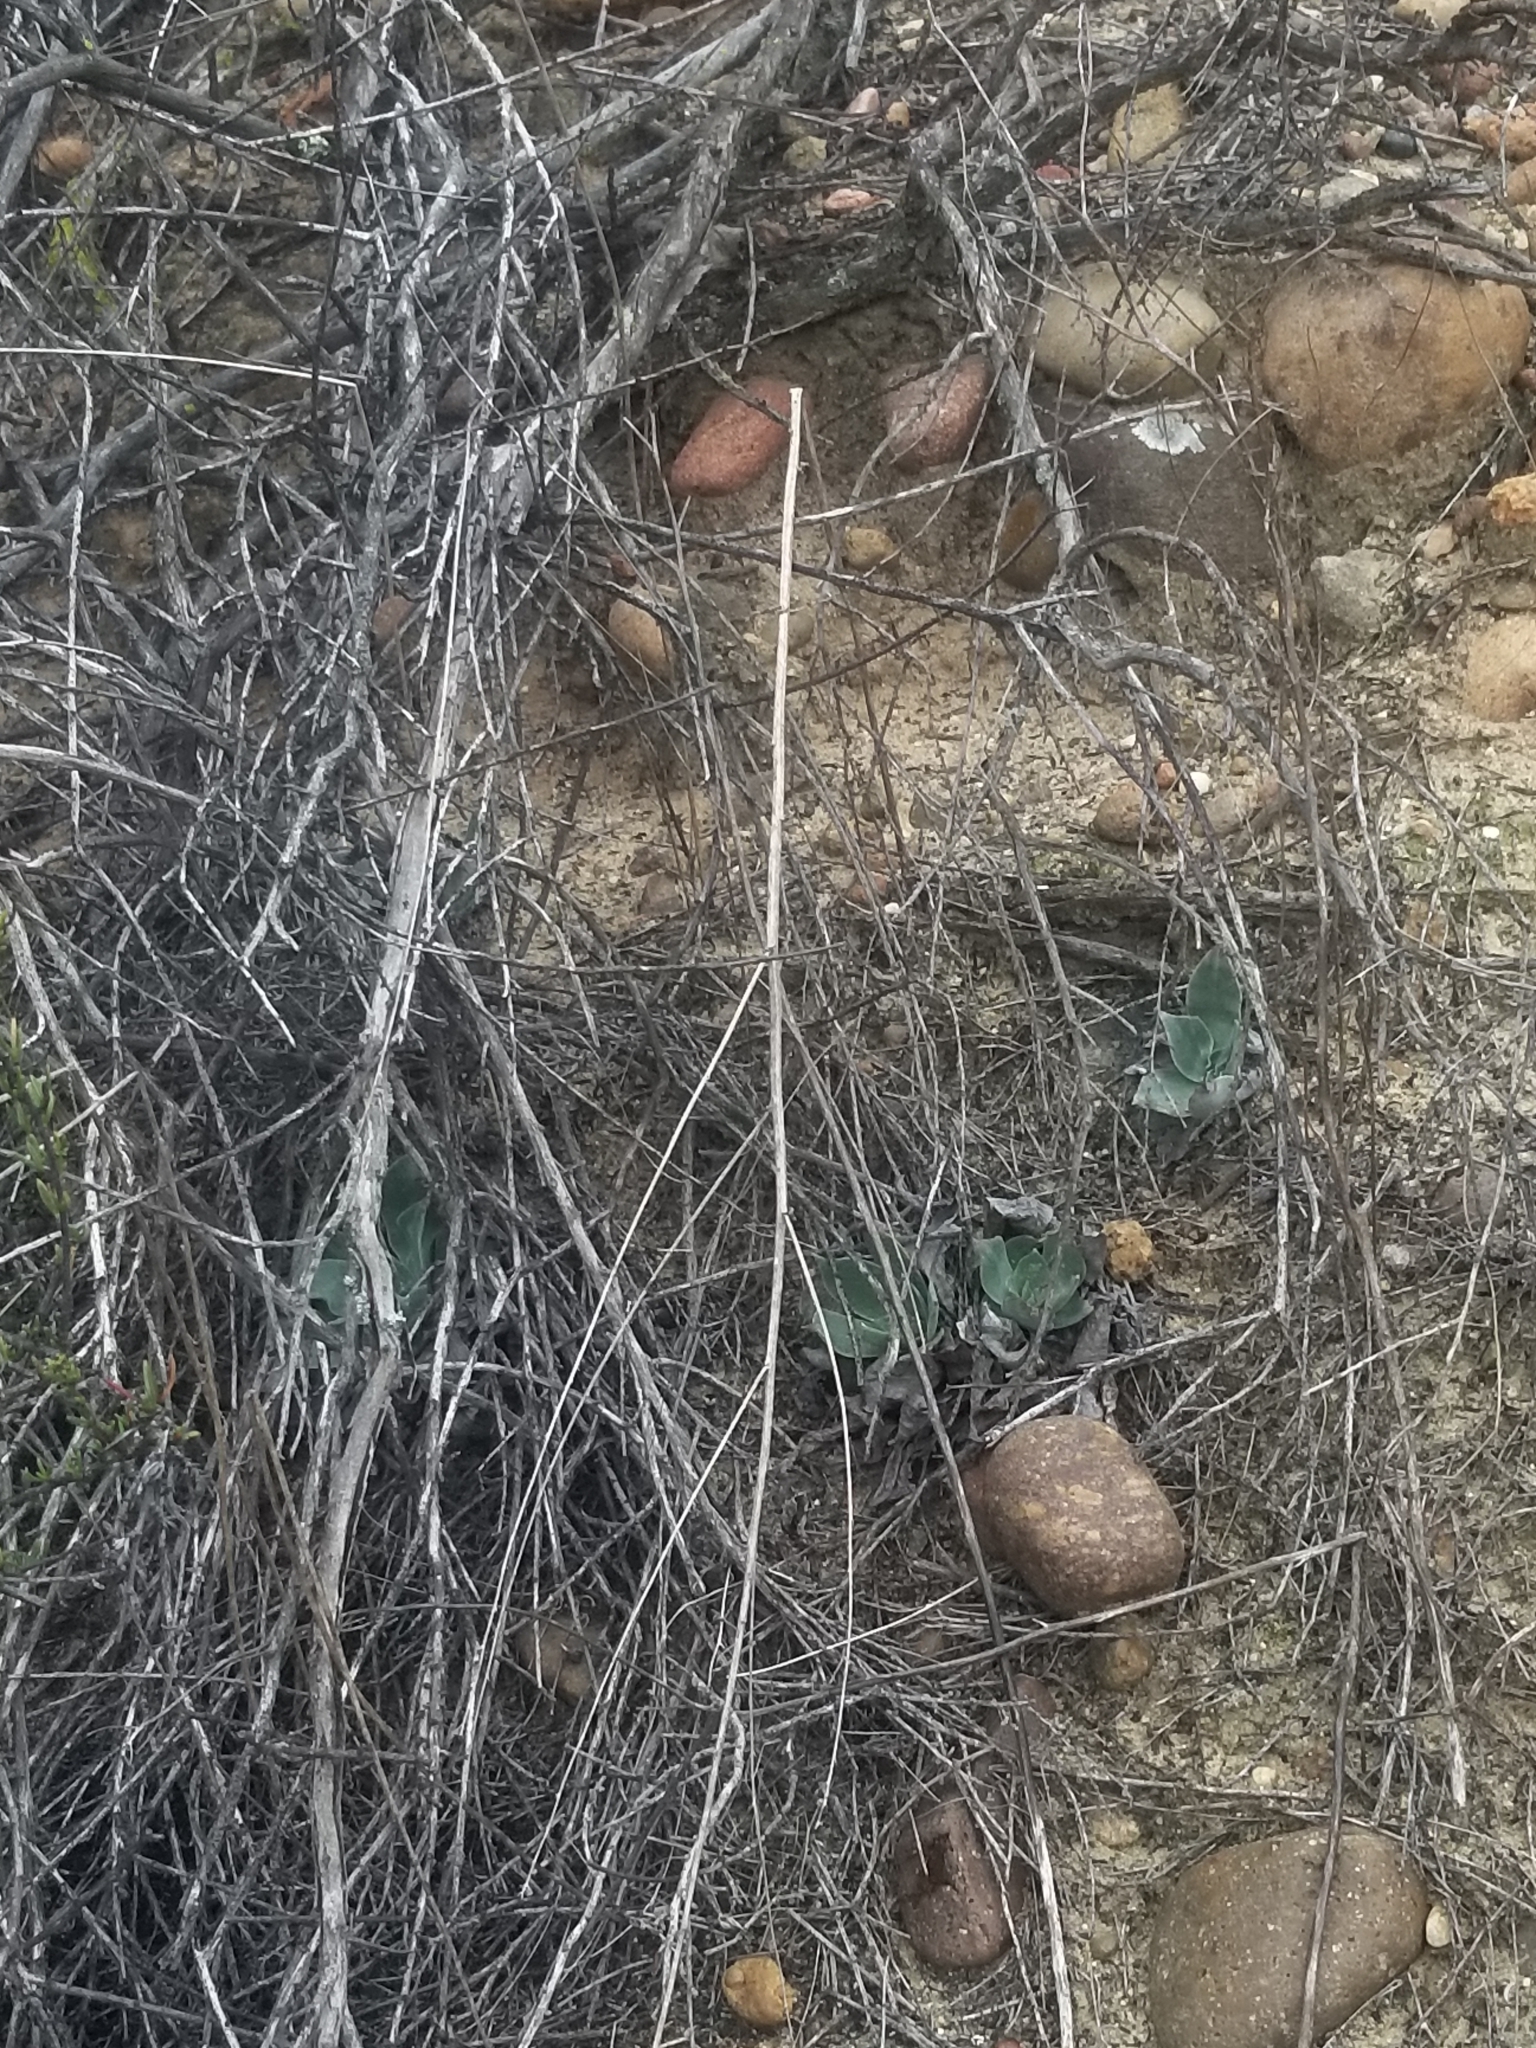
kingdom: Plantae
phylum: Tracheophyta
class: Magnoliopsida
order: Saxifragales
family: Crassulaceae
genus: Dudleya
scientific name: Dudleya pulverulenta
